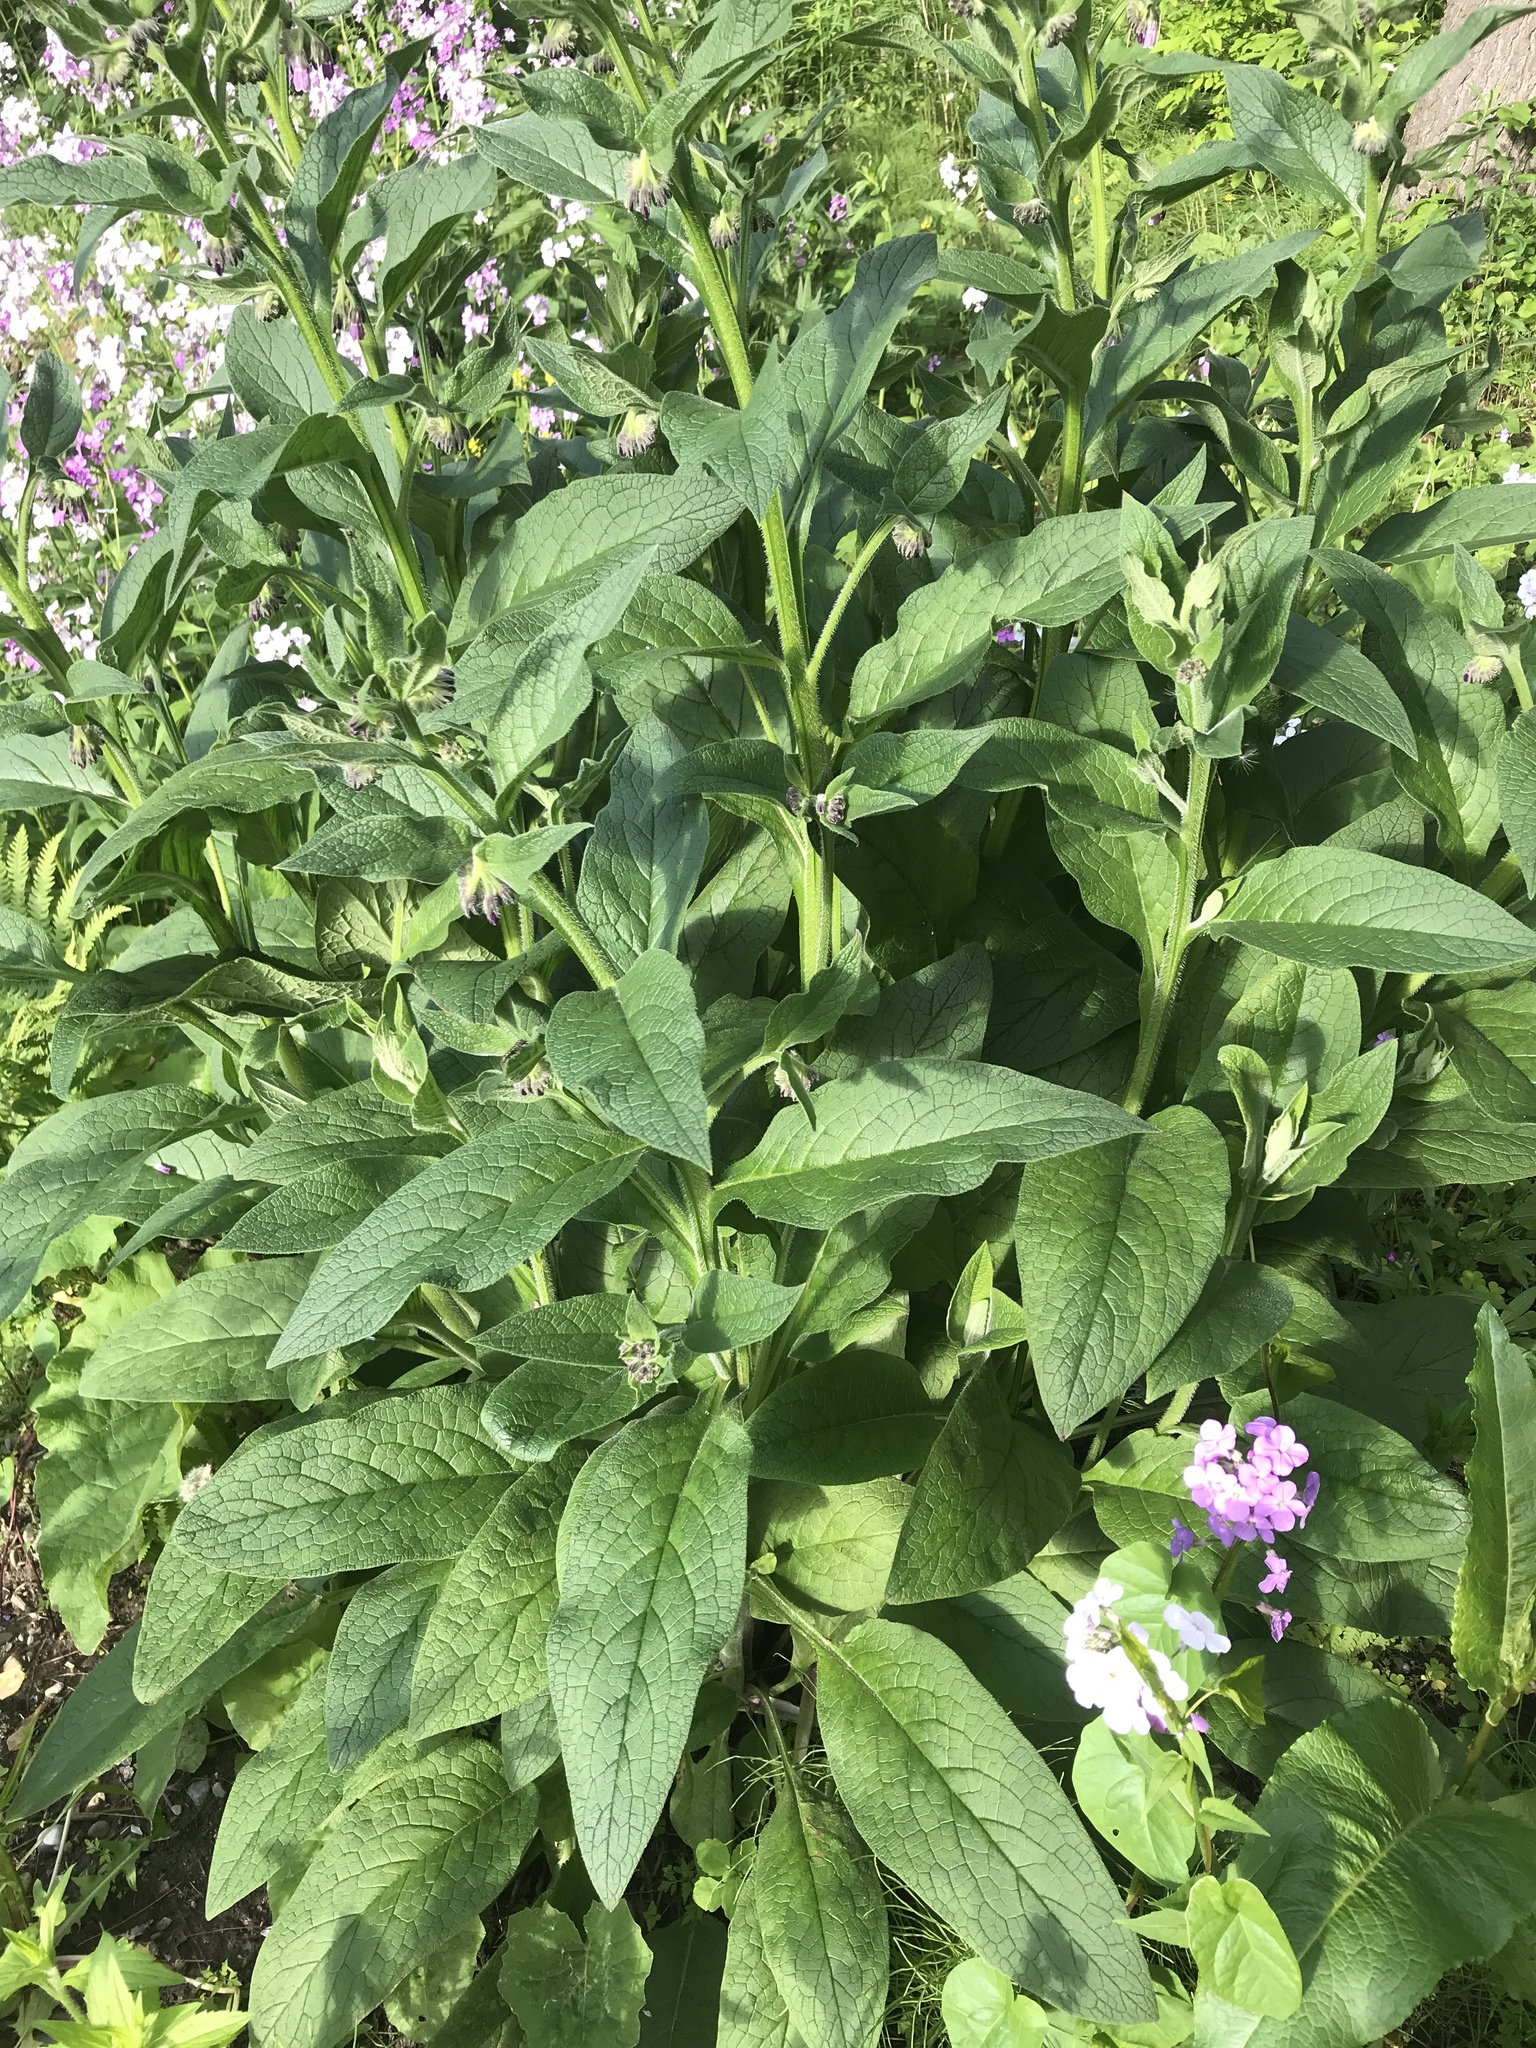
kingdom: Plantae
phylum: Tracheophyta
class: Magnoliopsida
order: Boraginales
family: Boraginaceae
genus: Symphytum
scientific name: Symphytum officinale
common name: Common comfrey
